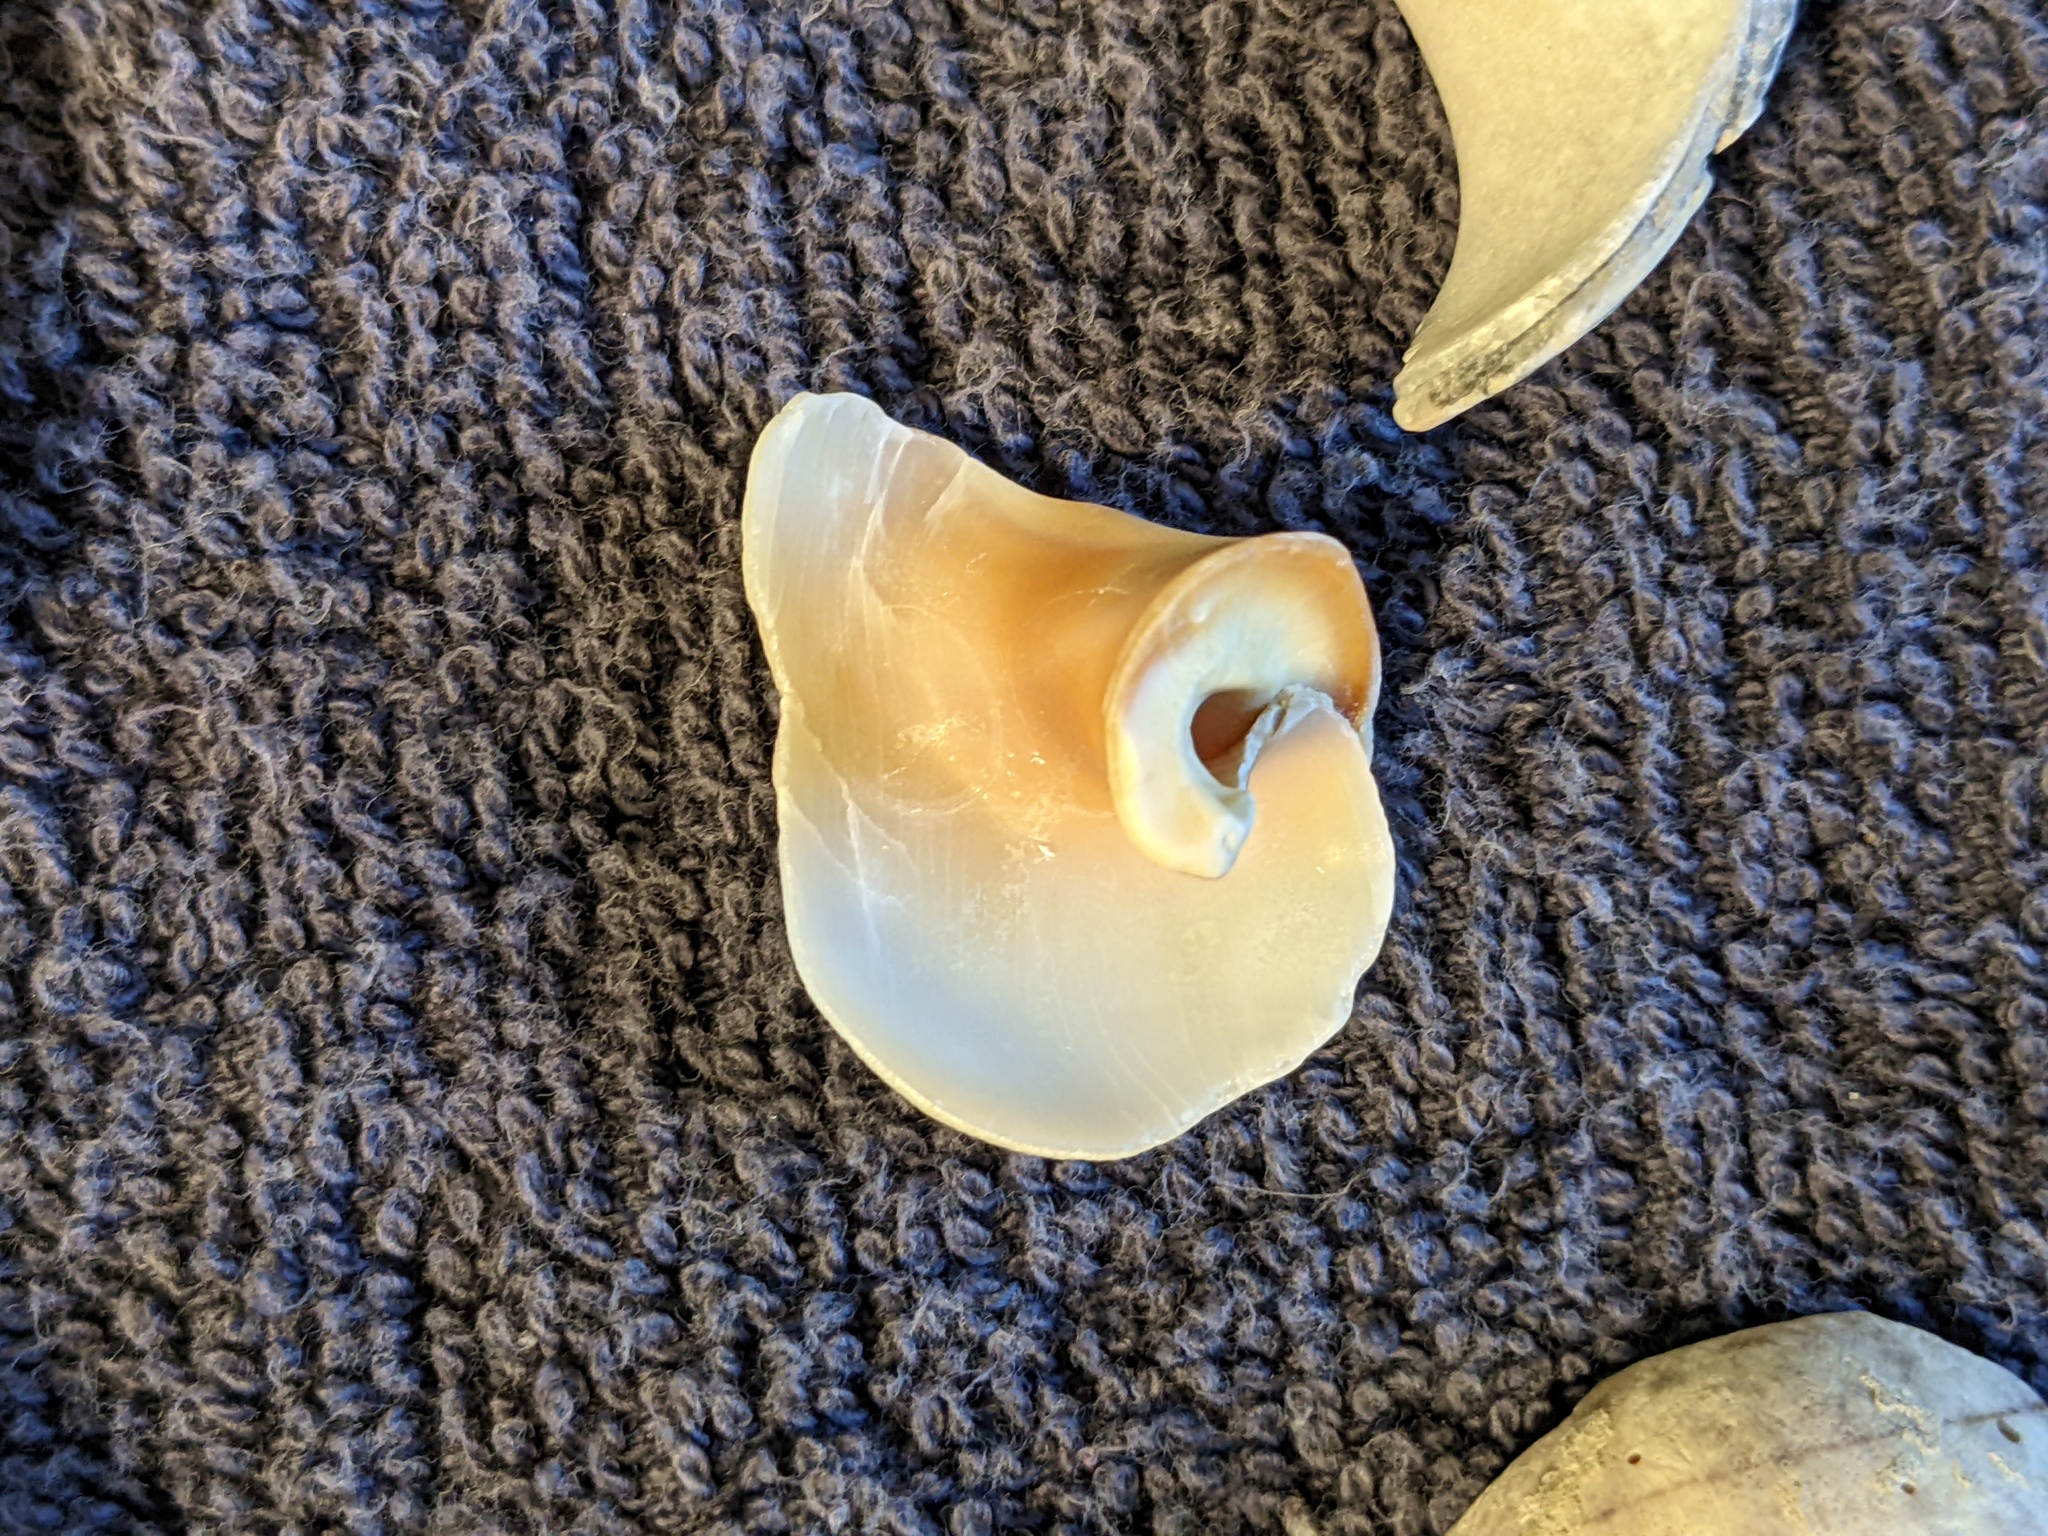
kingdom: Animalia
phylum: Mollusca
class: Gastropoda
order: Littorinimorpha
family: Naticidae
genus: Neverita
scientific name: Neverita duplicata
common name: Lobed moonsnail
